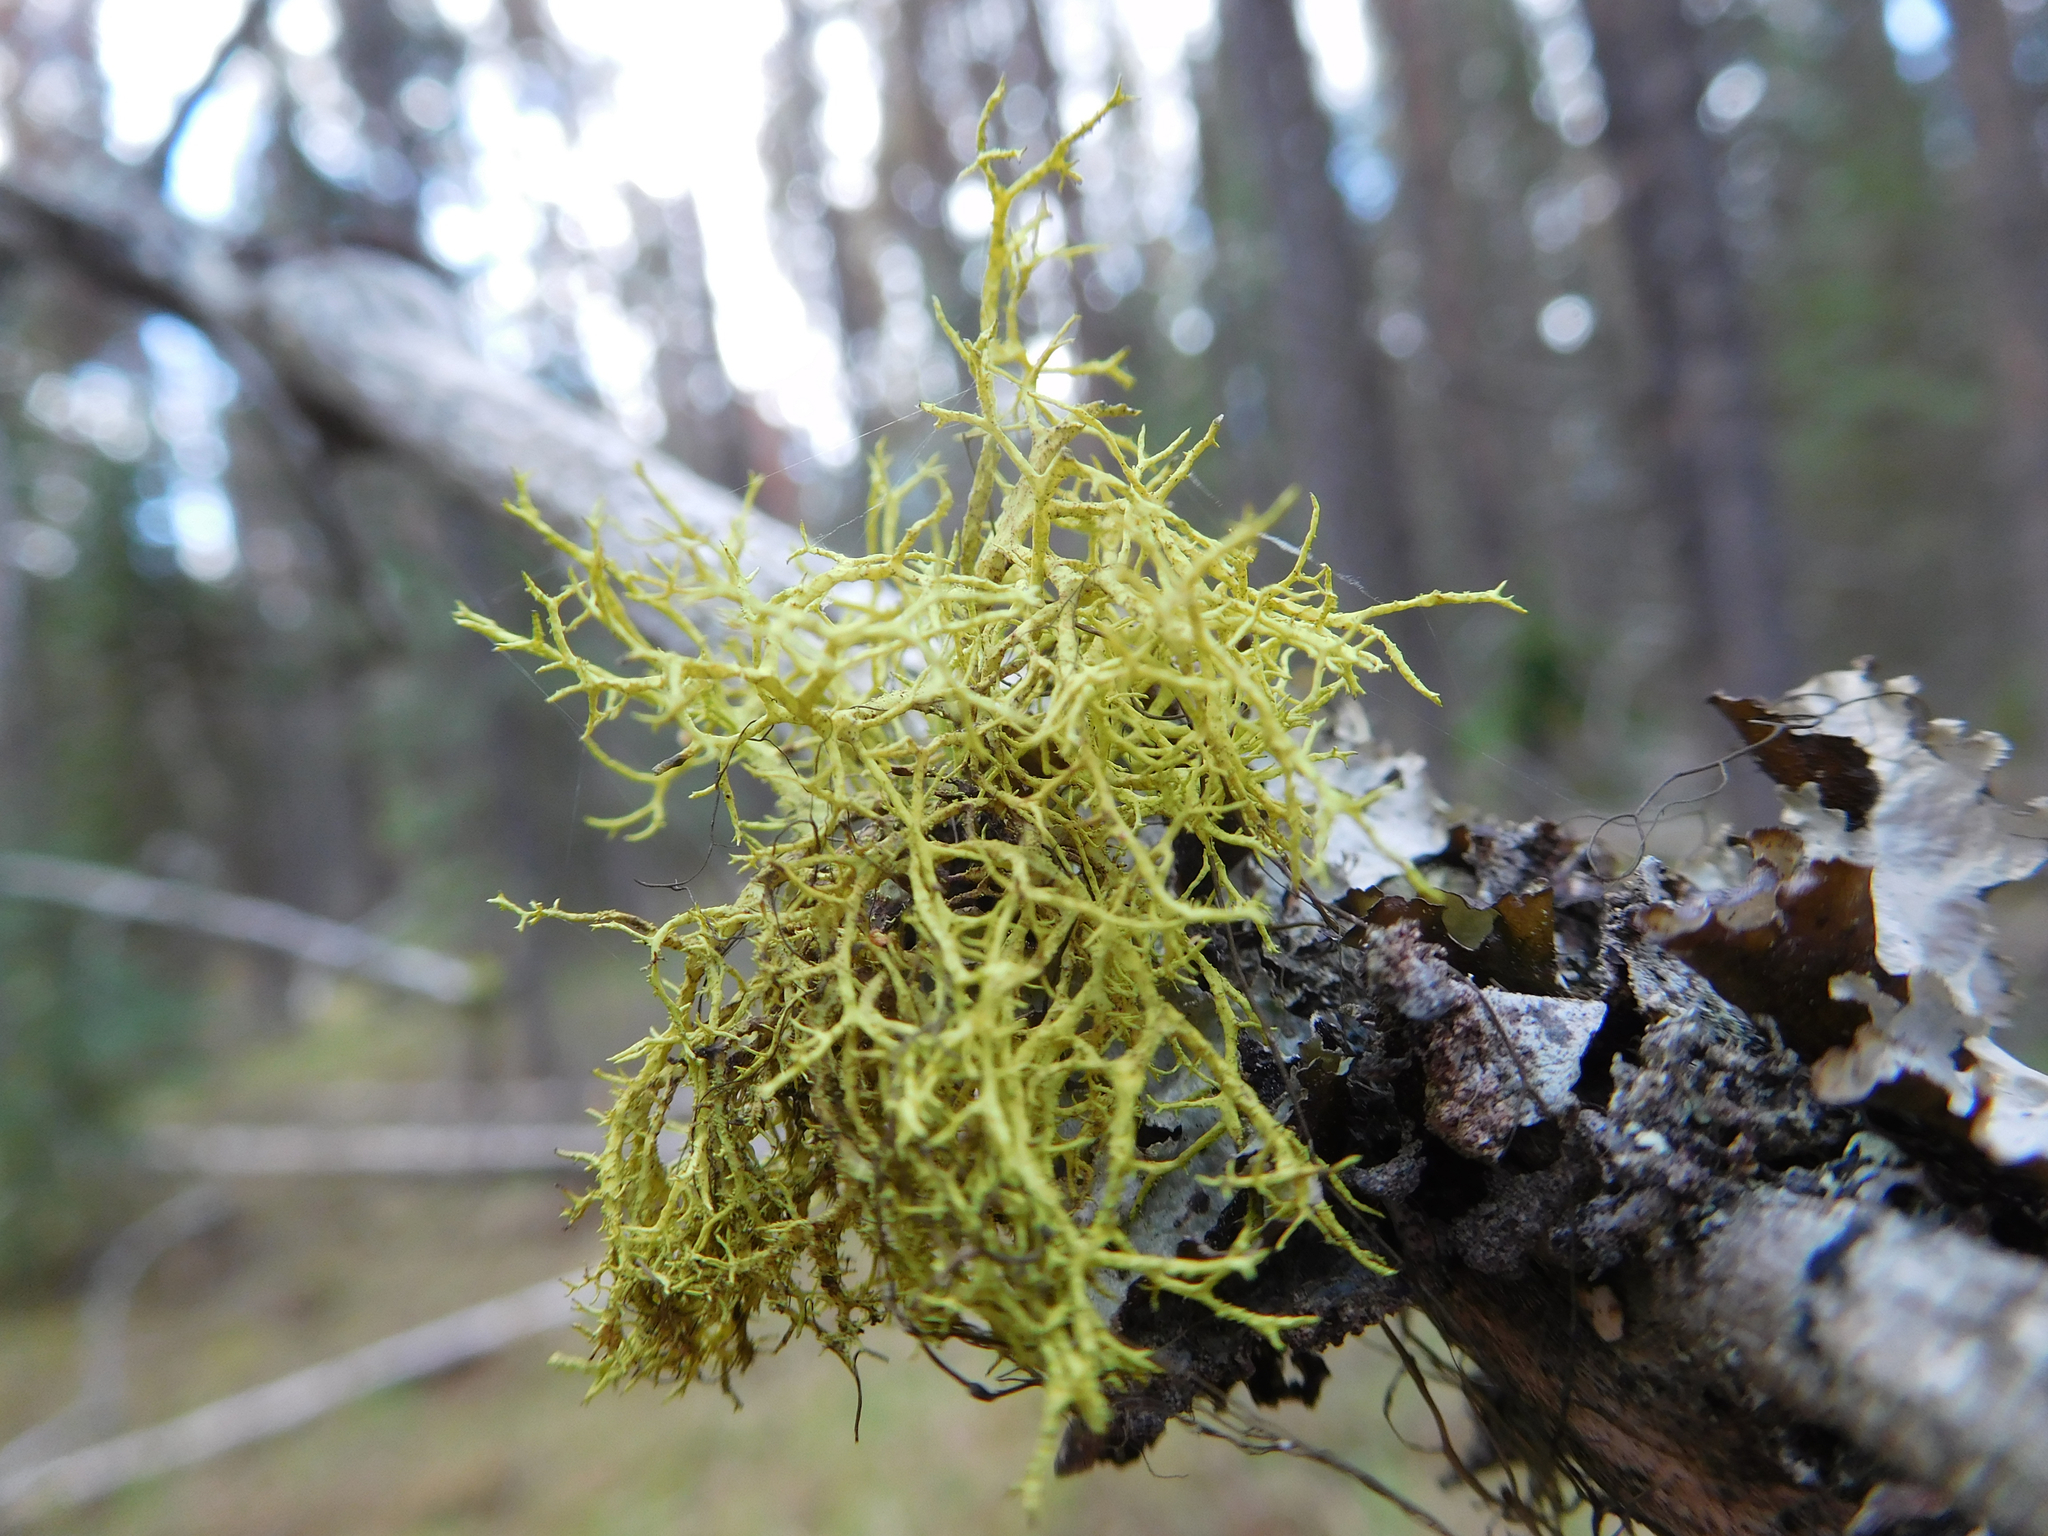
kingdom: Fungi
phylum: Ascomycota
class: Lecanoromycetes
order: Lecanorales
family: Parmeliaceae
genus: Letharia
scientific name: Letharia vulpina
